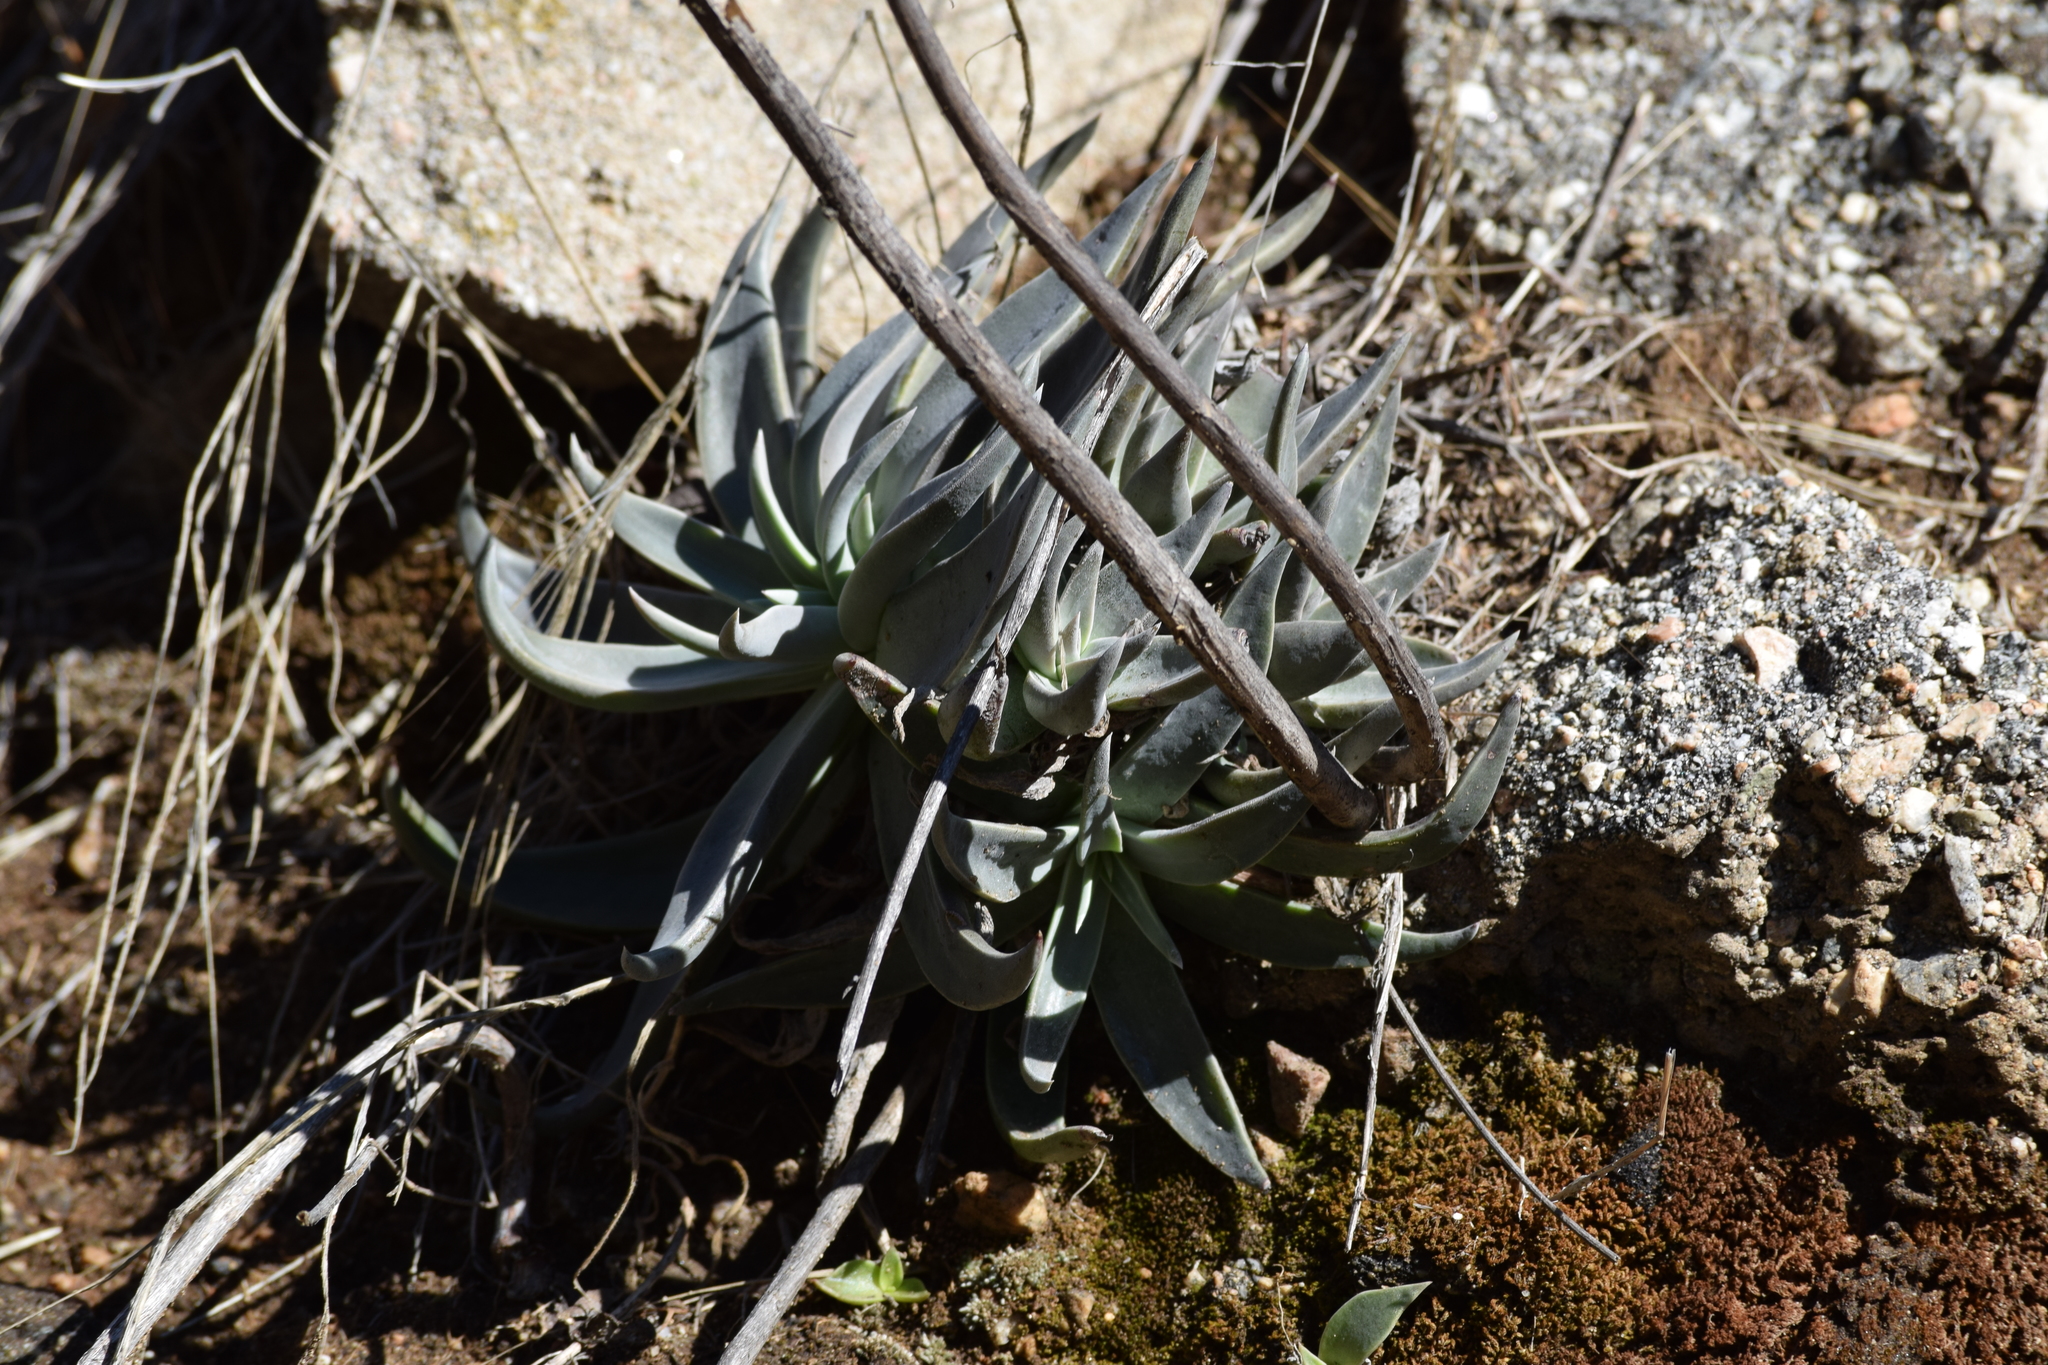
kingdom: Plantae
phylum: Tracheophyta
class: Magnoliopsida
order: Saxifragales
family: Crassulaceae
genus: Dudleya
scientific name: Dudleya lanceolata
